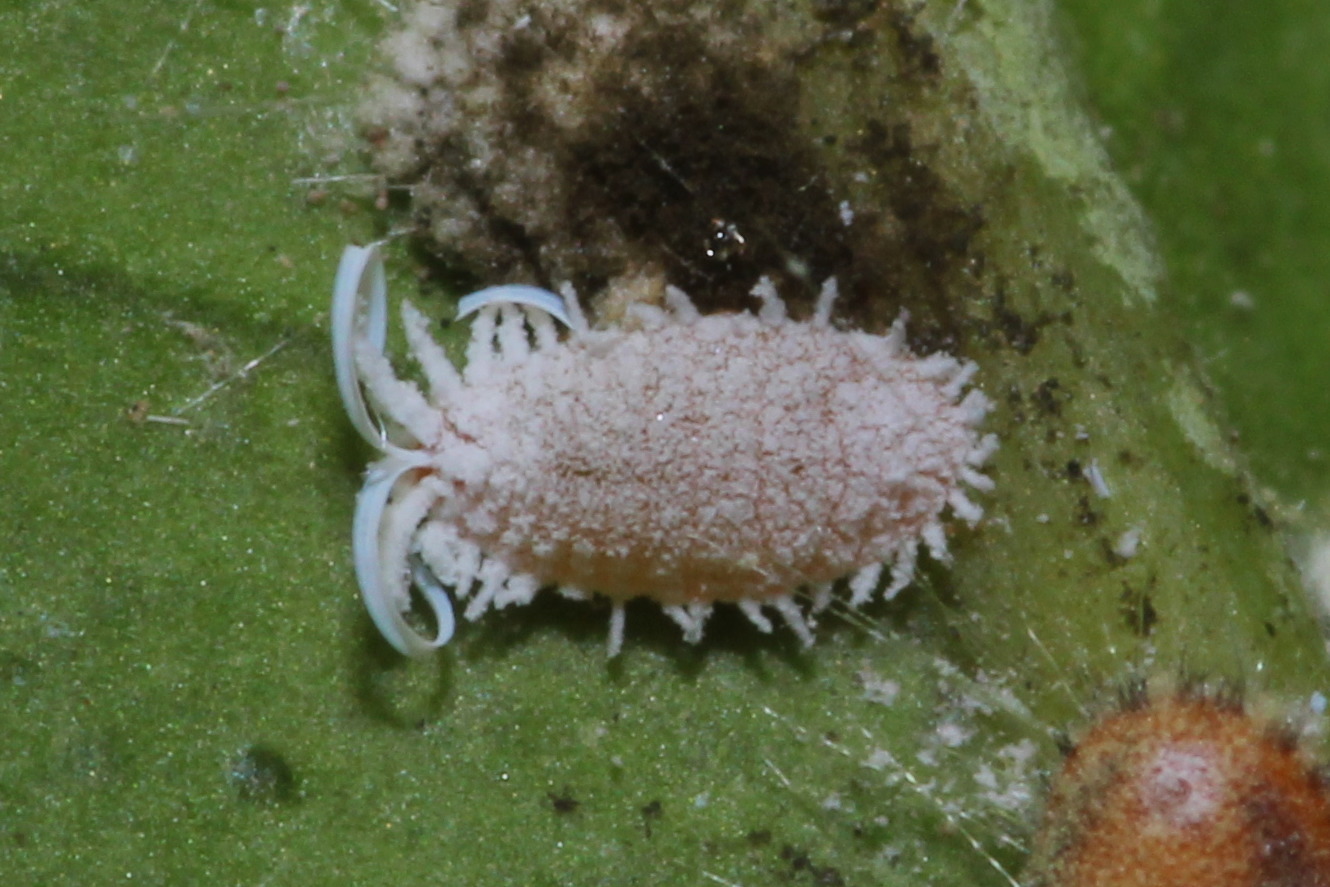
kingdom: Animalia
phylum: Arthropoda
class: Insecta
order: Hemiptera
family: Margarodidae
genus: Icerya
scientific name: Icerya purchasi
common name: Cottony cushion scale
